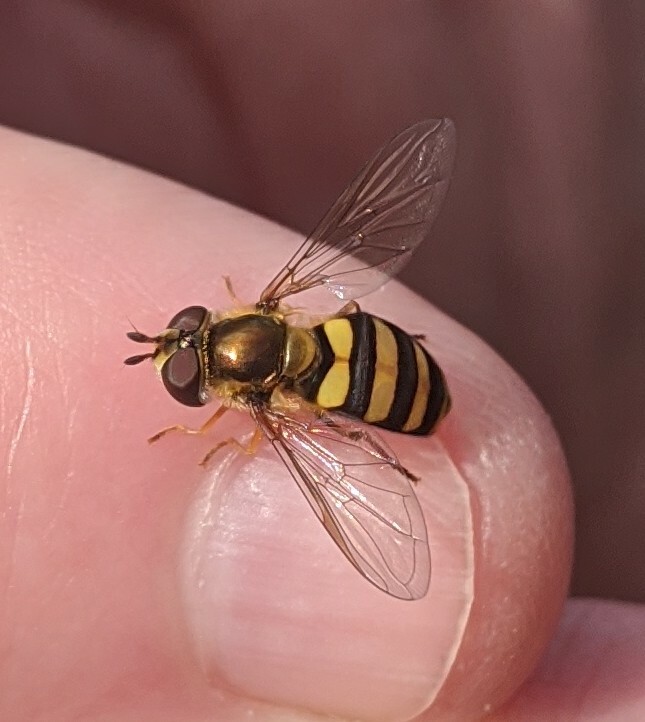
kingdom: Animalia
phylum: Arthropoda
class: Insecta
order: Diptera
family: Syrphidae
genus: Eupeodes
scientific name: Eupeodes
